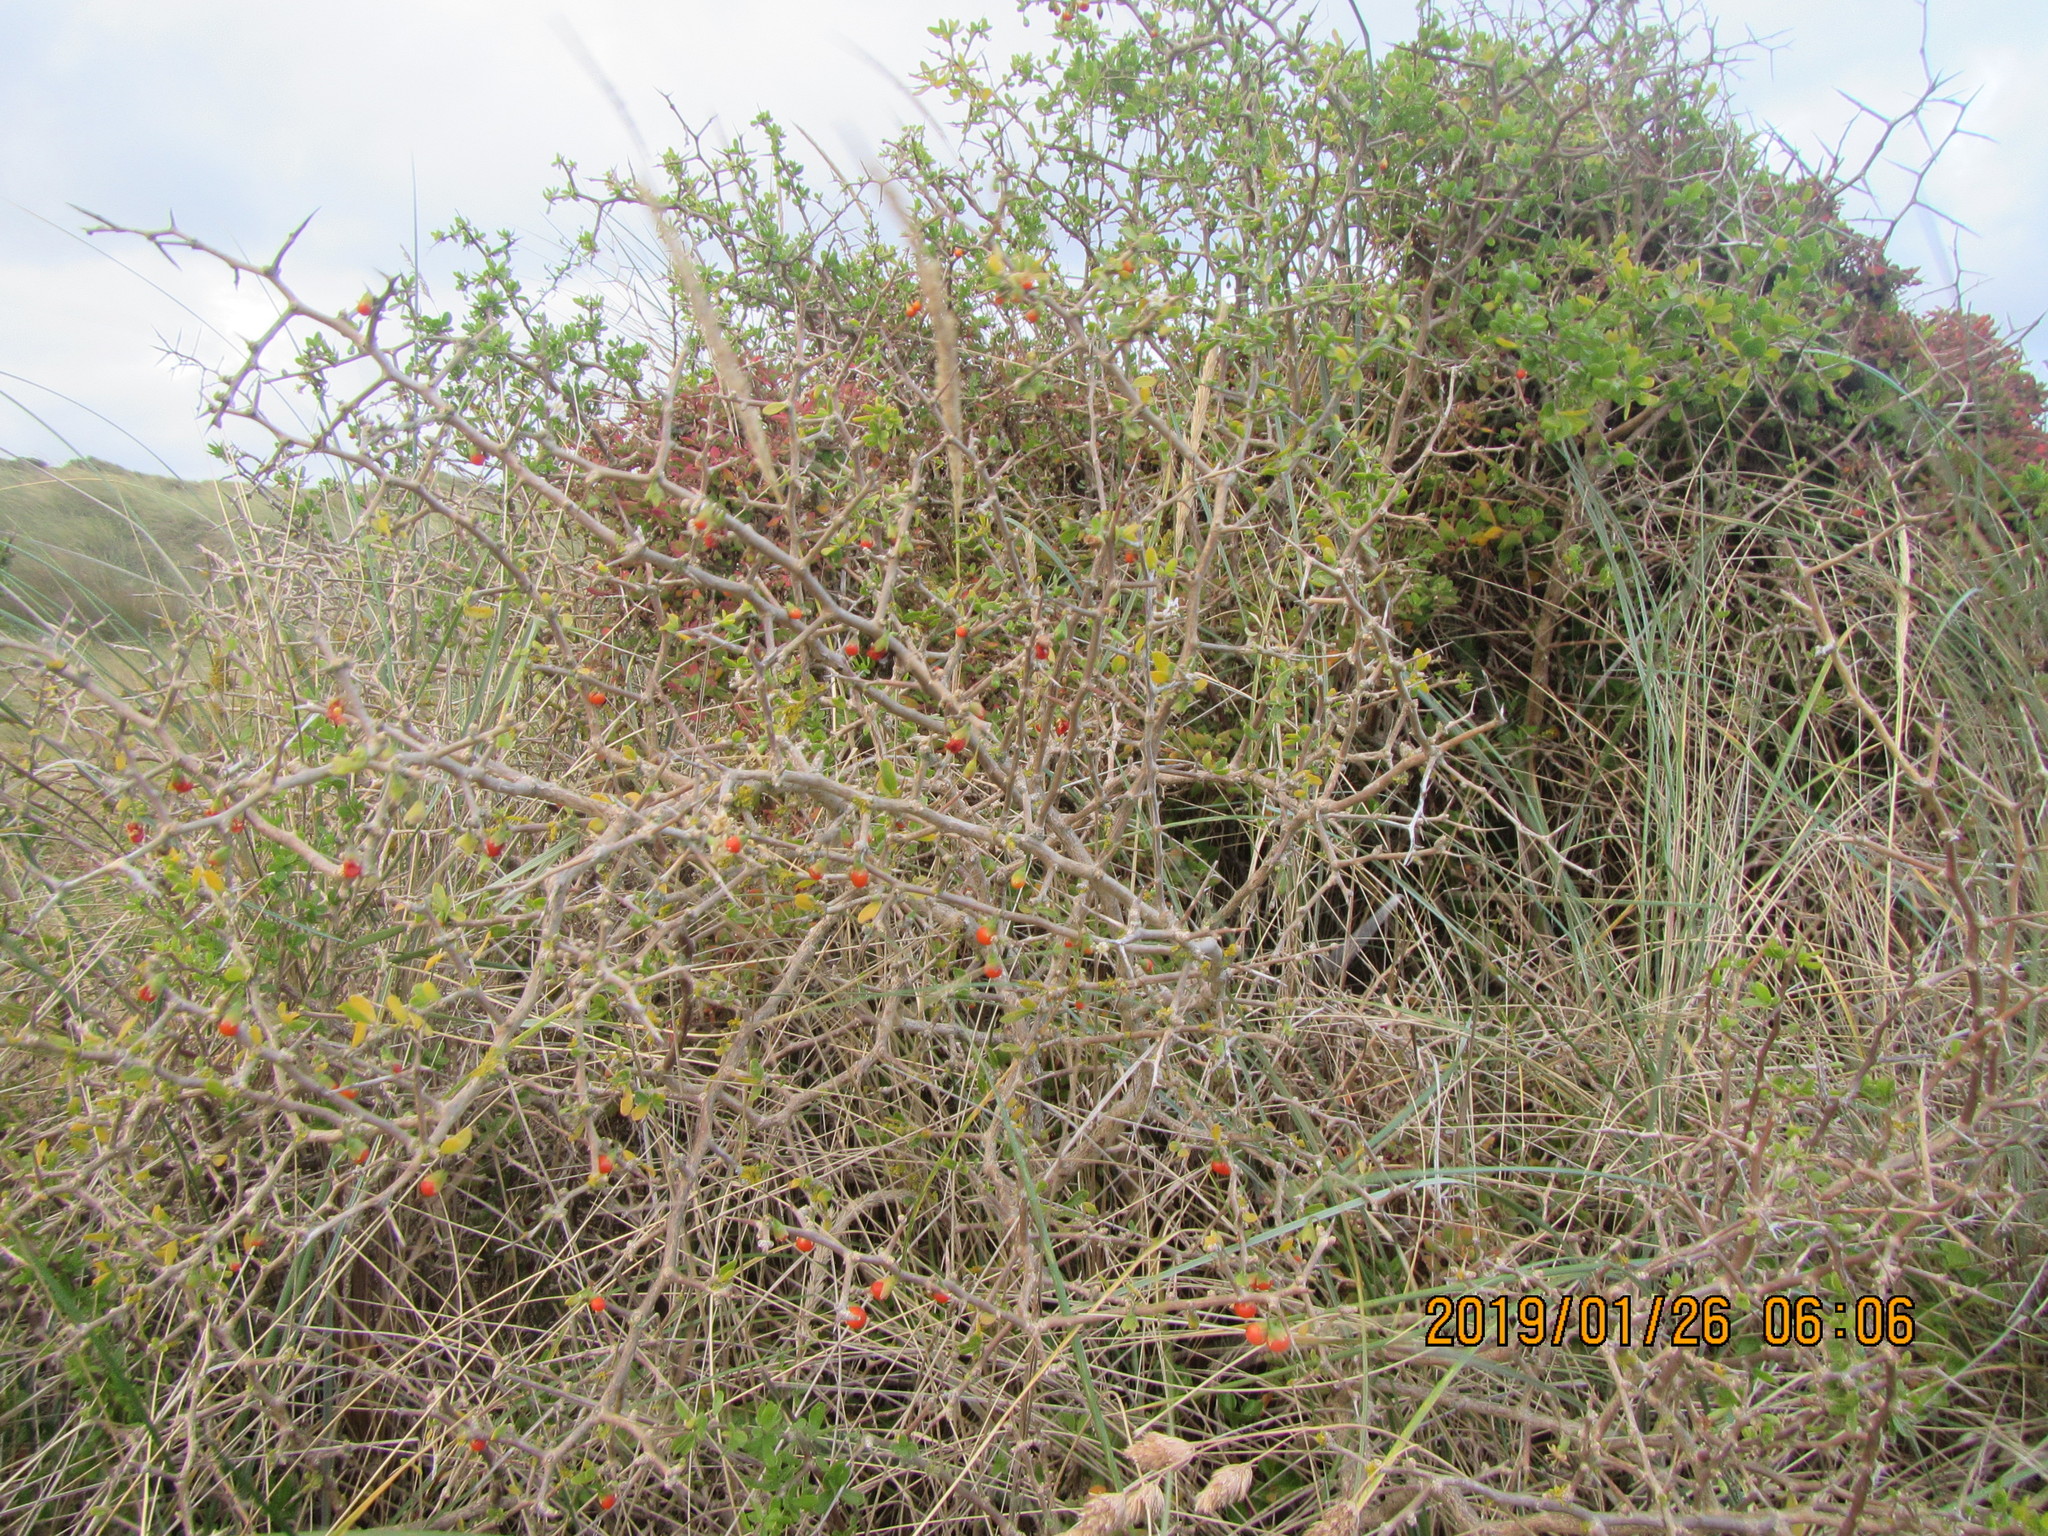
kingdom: Plantae
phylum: Tracheophyta
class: Magnoliopsida
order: Solanales
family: Solanaceae
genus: Lycium
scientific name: Lycium ferocissimum
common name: African boxthorn
